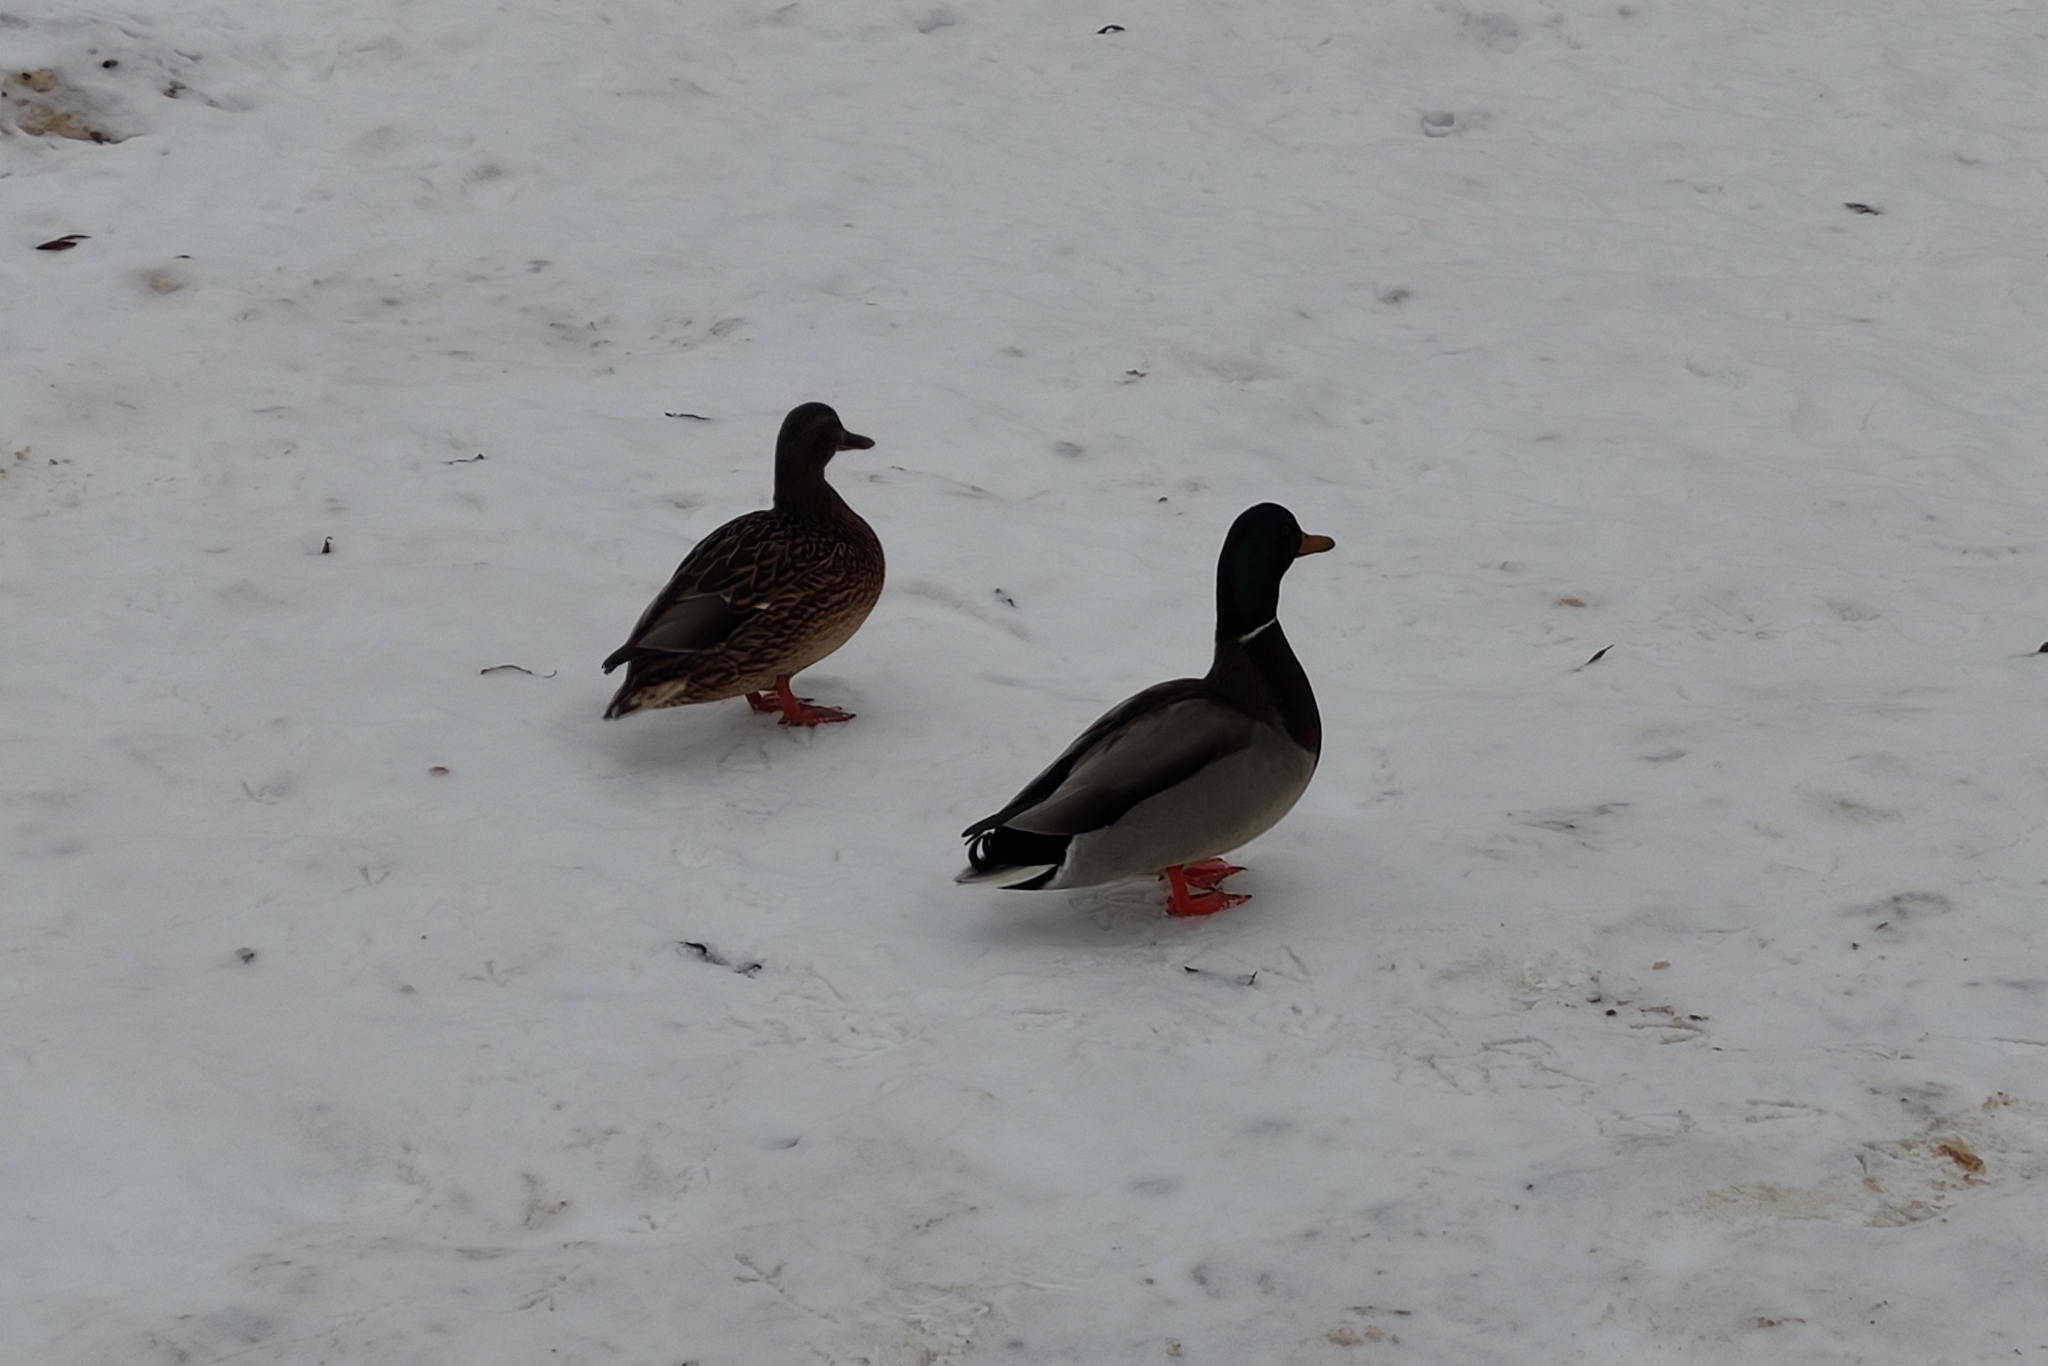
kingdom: Animalia
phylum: Chordata
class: Aves
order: Anseriformes
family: Anatidae
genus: Anas
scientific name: Anas platyrhynchos
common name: Mallard
